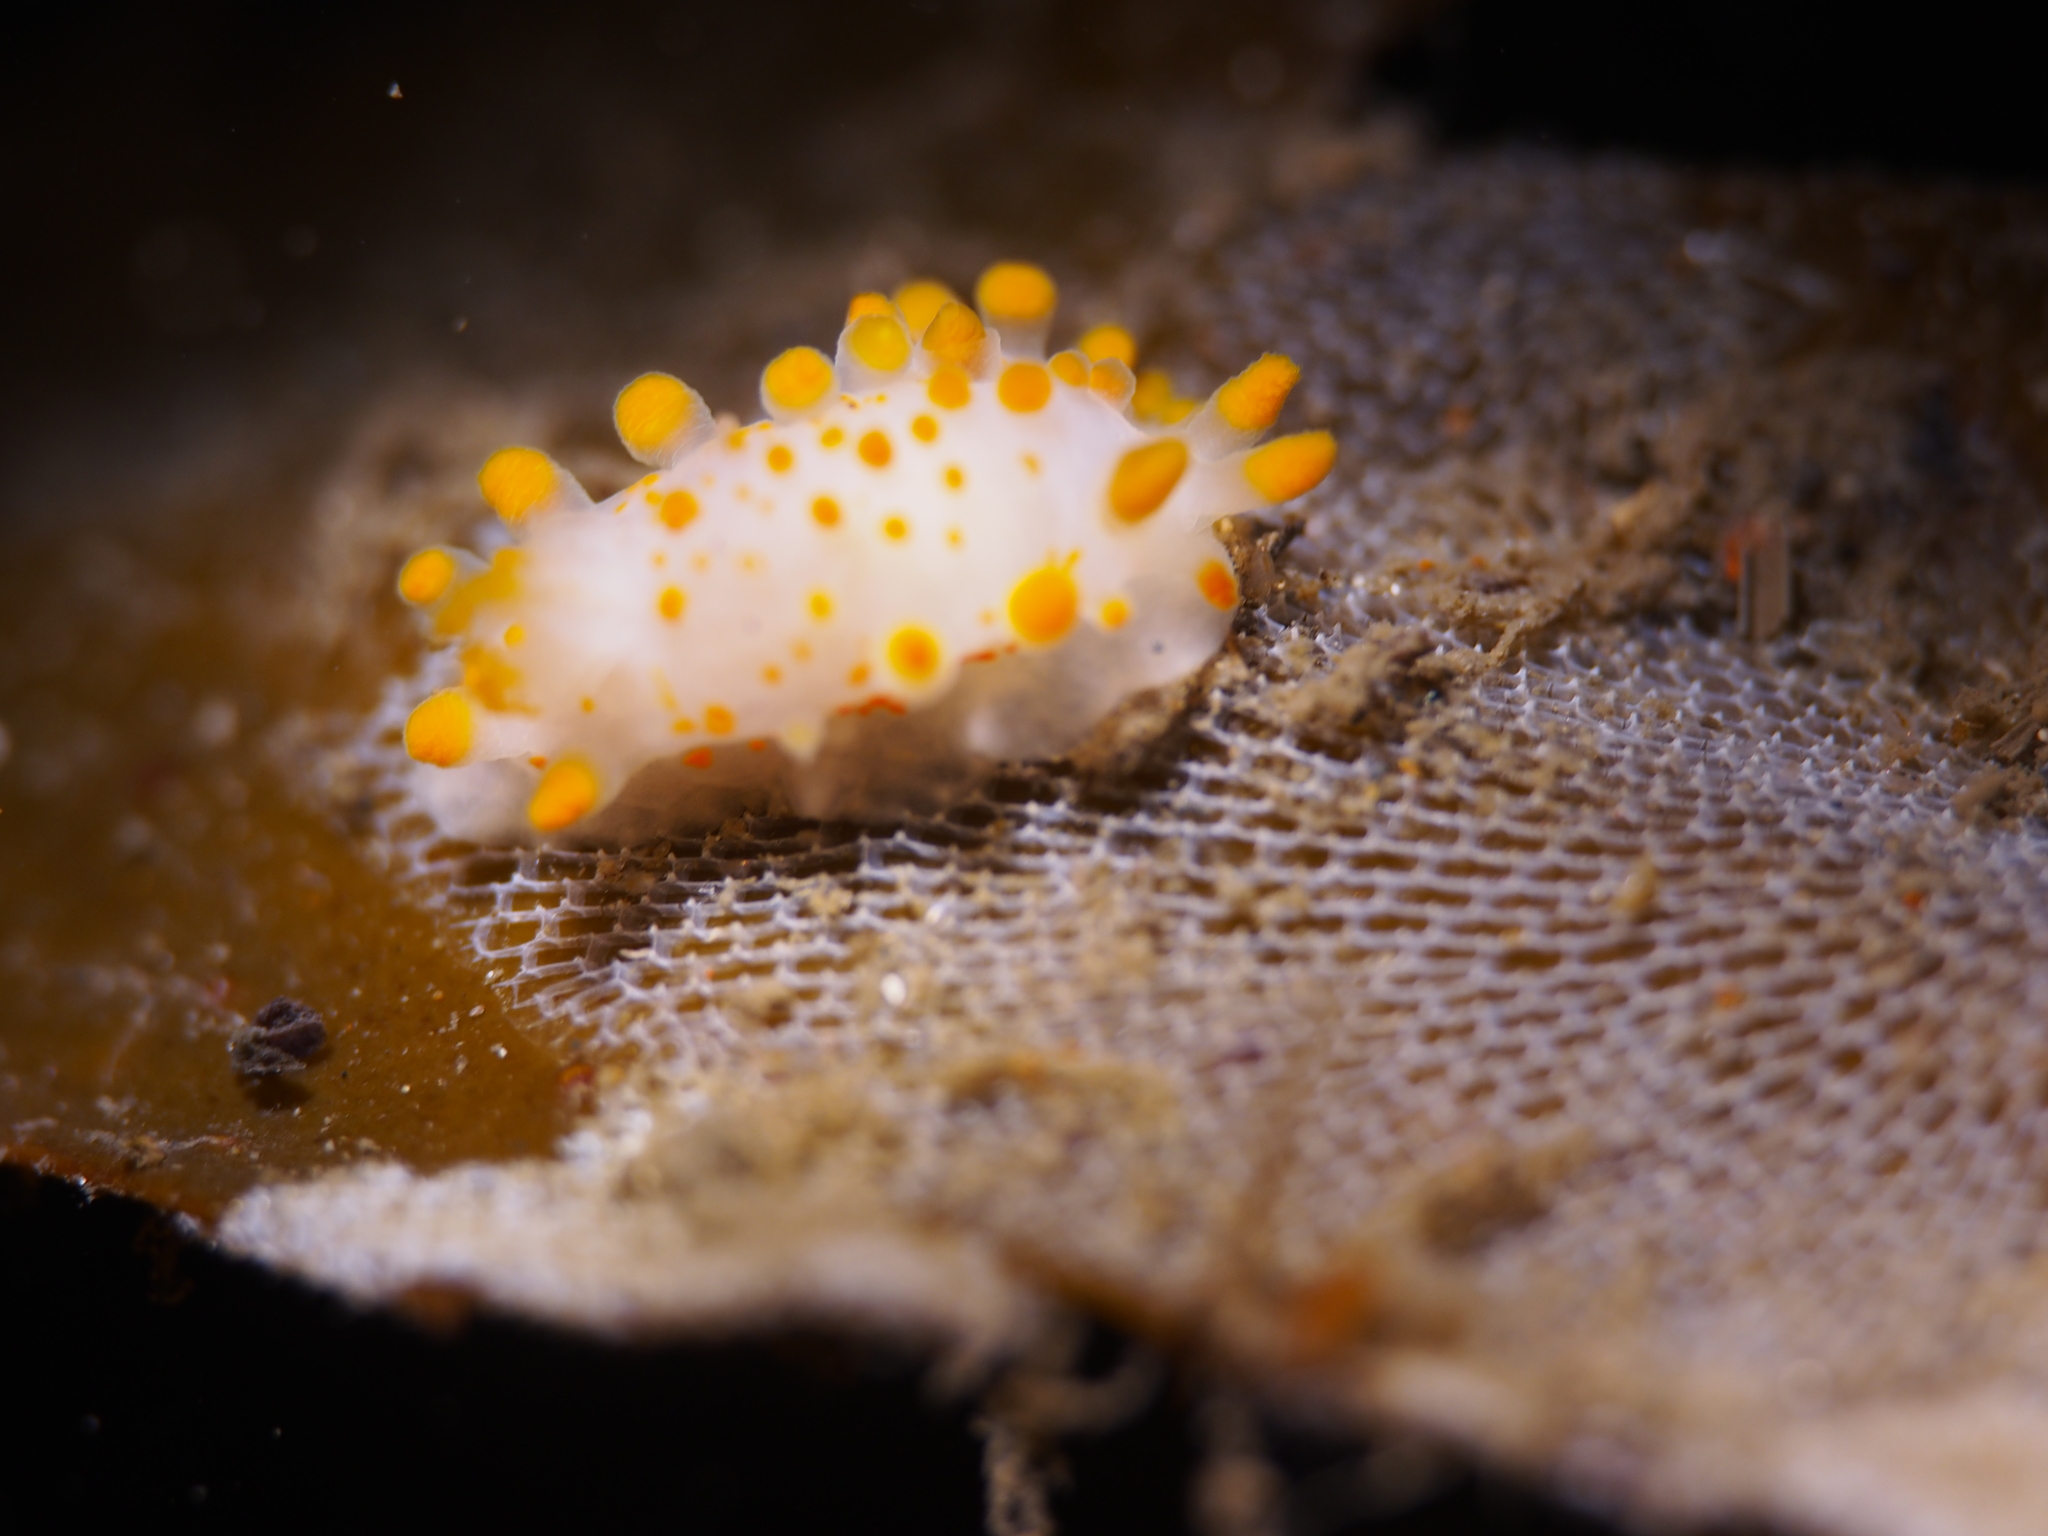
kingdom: Animalia
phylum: Mollusca
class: Gastropoda
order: Nudibranchia
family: Polyceridae
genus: Limacia
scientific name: Limacia clavigera
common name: Orange-clubbed sea slug
